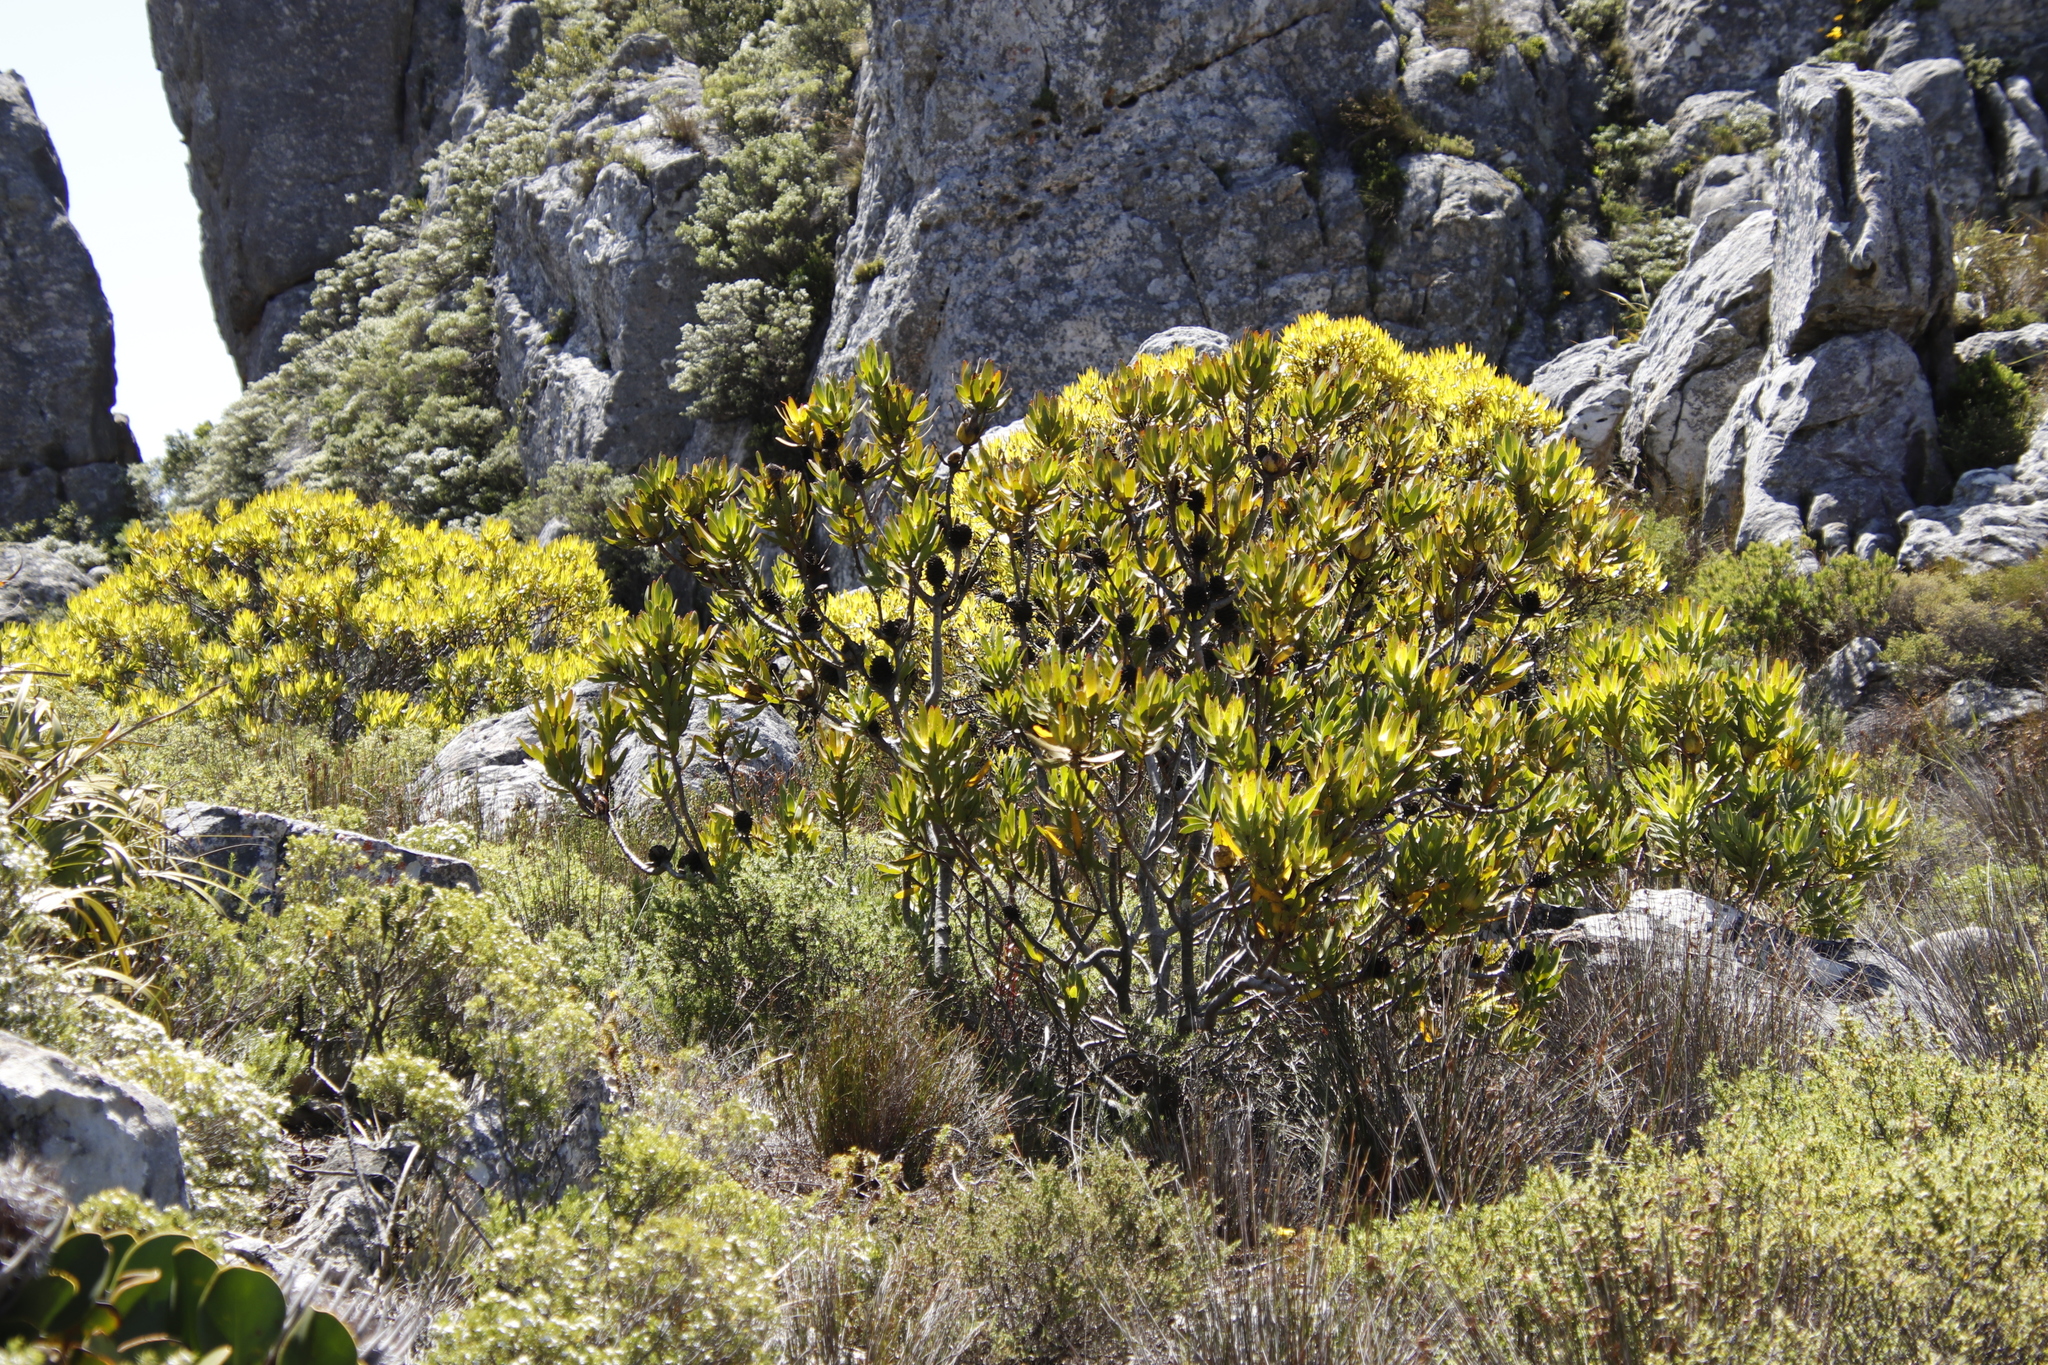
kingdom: Plantae
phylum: Tracheophyta
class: Magnoliopsida
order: Proteales
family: Proteaceae
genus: Protea
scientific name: Protea repens
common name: Sugarbush
